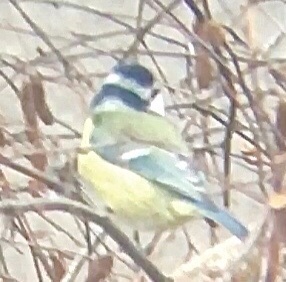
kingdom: Animalia
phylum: Chordata
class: Aves
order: Passeriformes
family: Paridae
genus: Cyanistes
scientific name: Cyanistes caeruleus
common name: Eurasian blue tit
